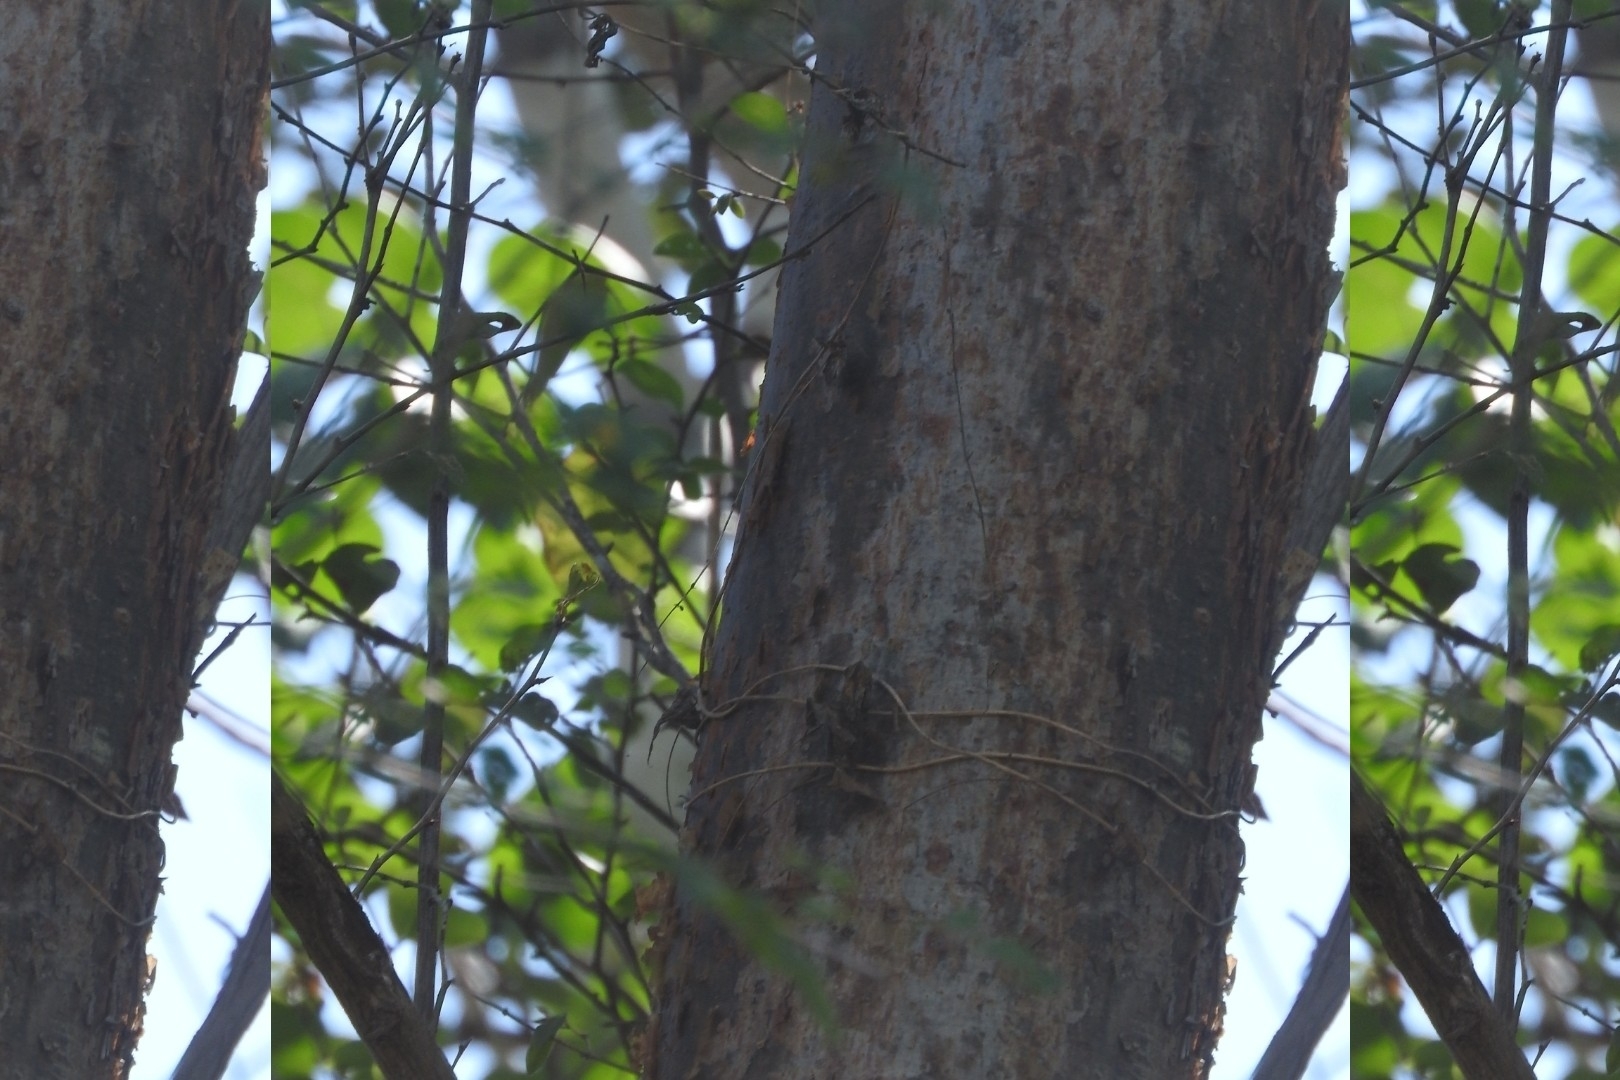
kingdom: Plantae
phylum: Tracheophyta
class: Magnoliopsida
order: Sapindales
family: Burseraceae
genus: Bursera
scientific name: Bursera simaruba
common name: Turpentine tree
